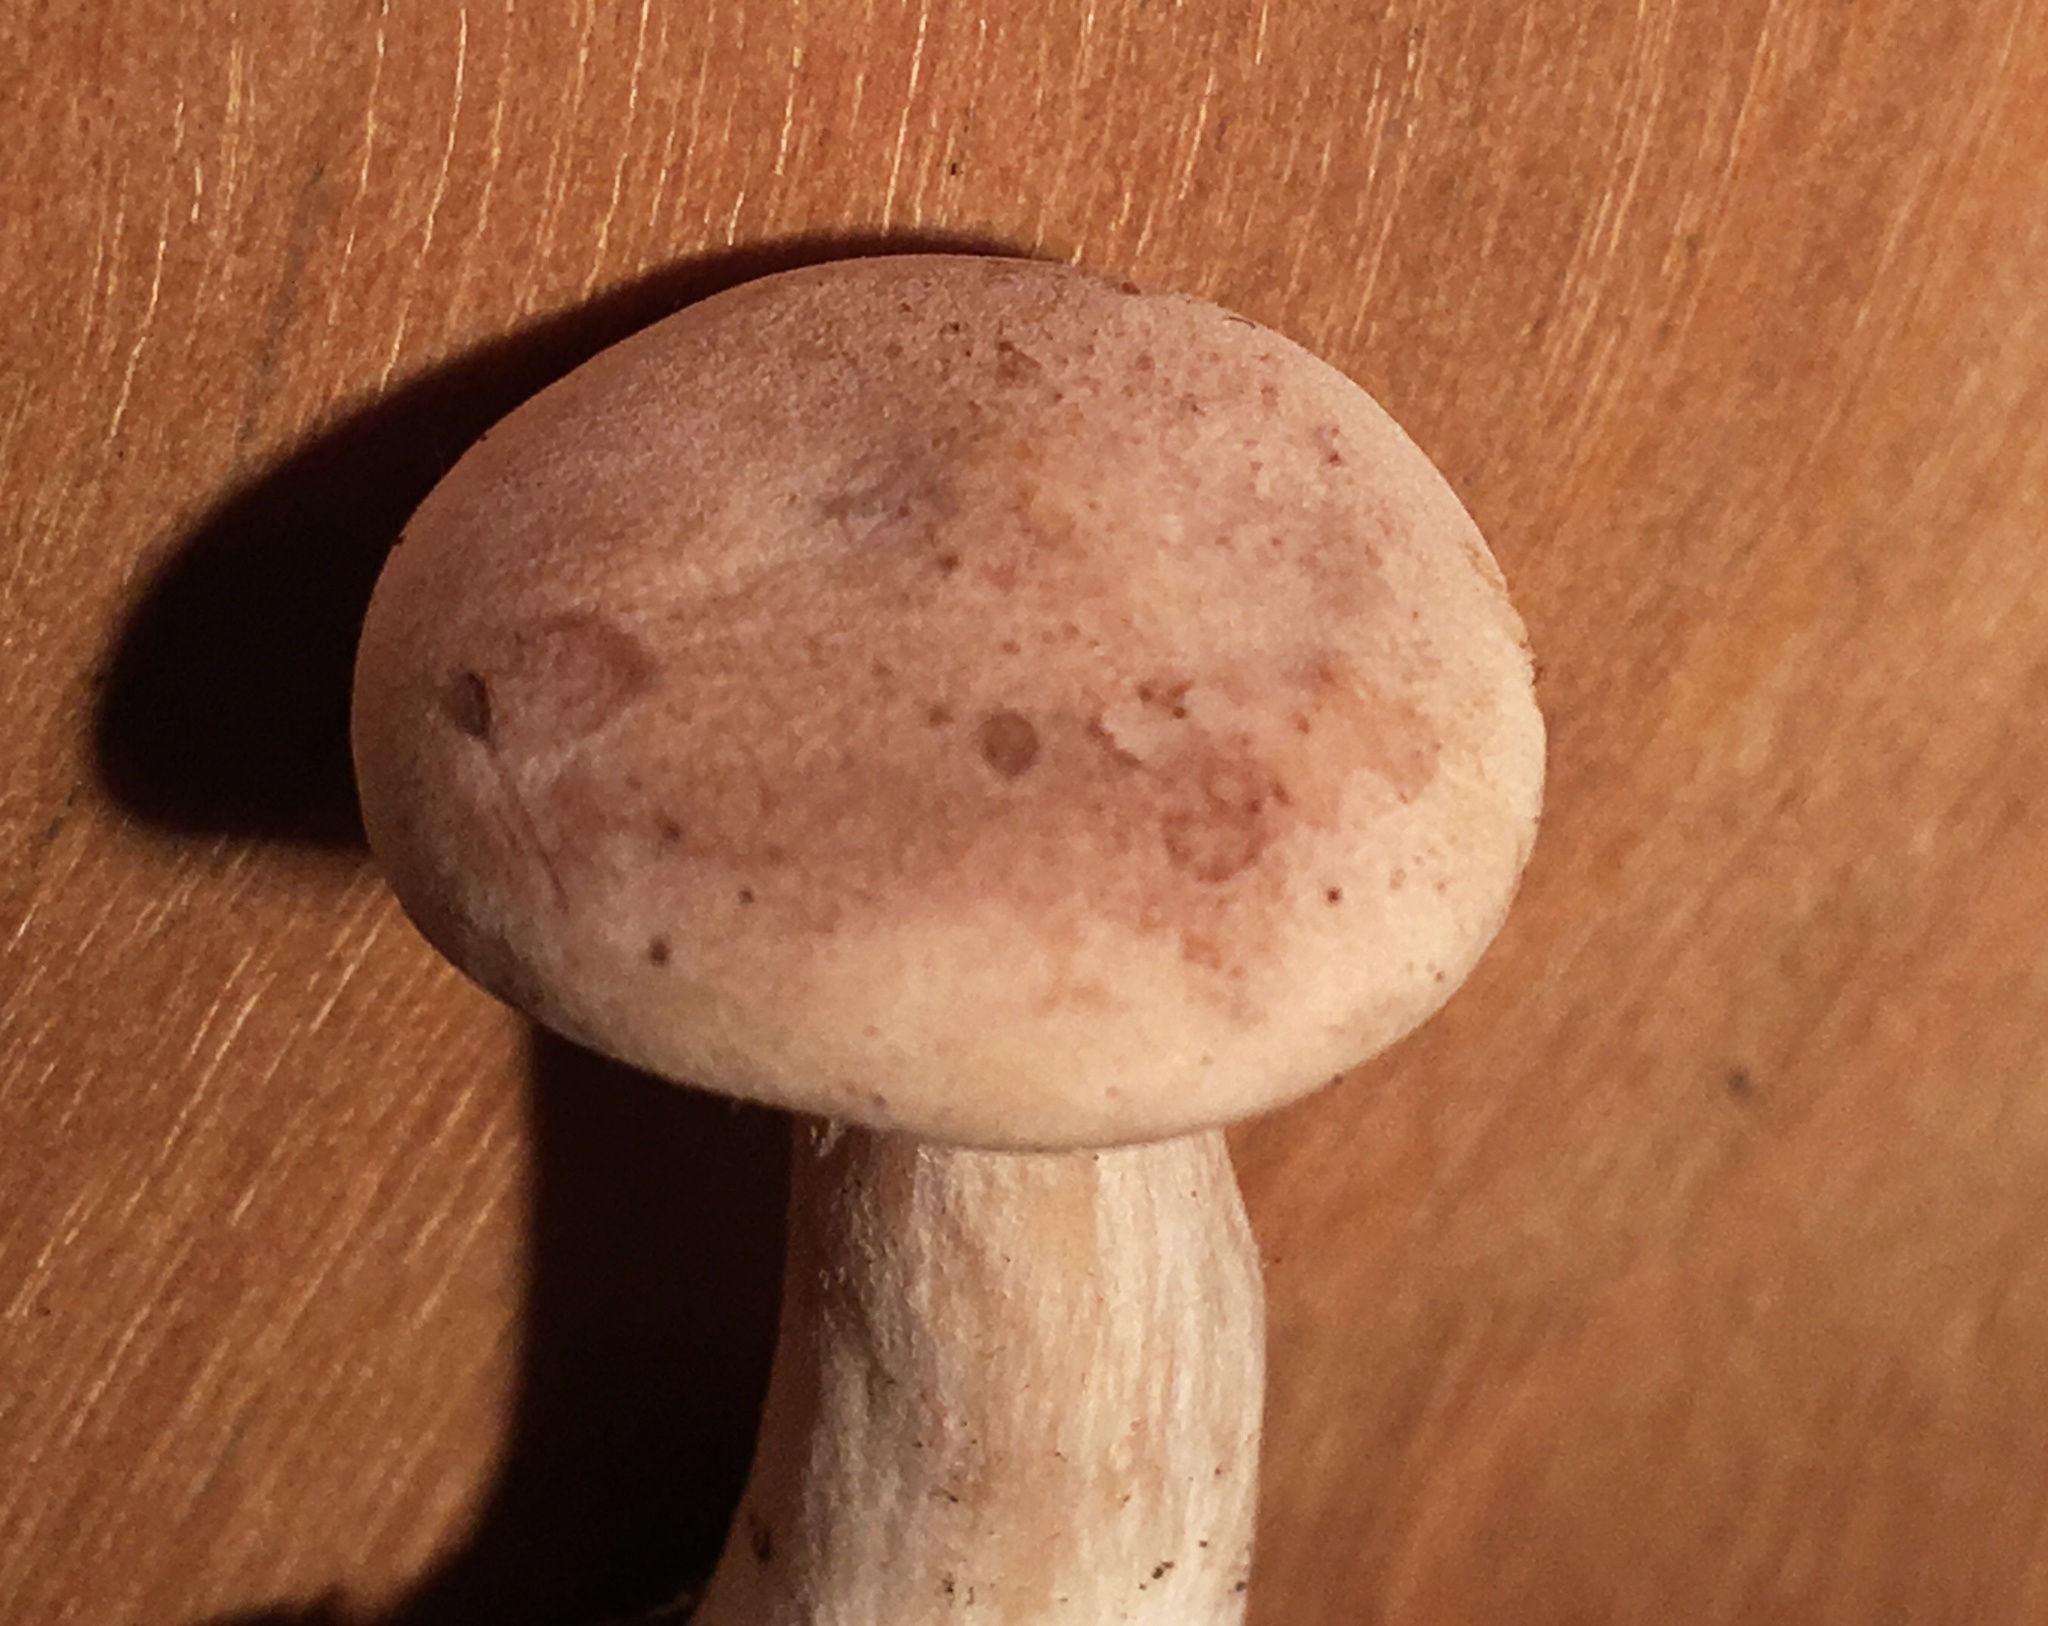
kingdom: Fungi
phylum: Basidiomycota
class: Agaricomycetes
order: Agaricales
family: Entolomataceae
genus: Rhodocybe
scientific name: Rhodocybe roseiavellanea
